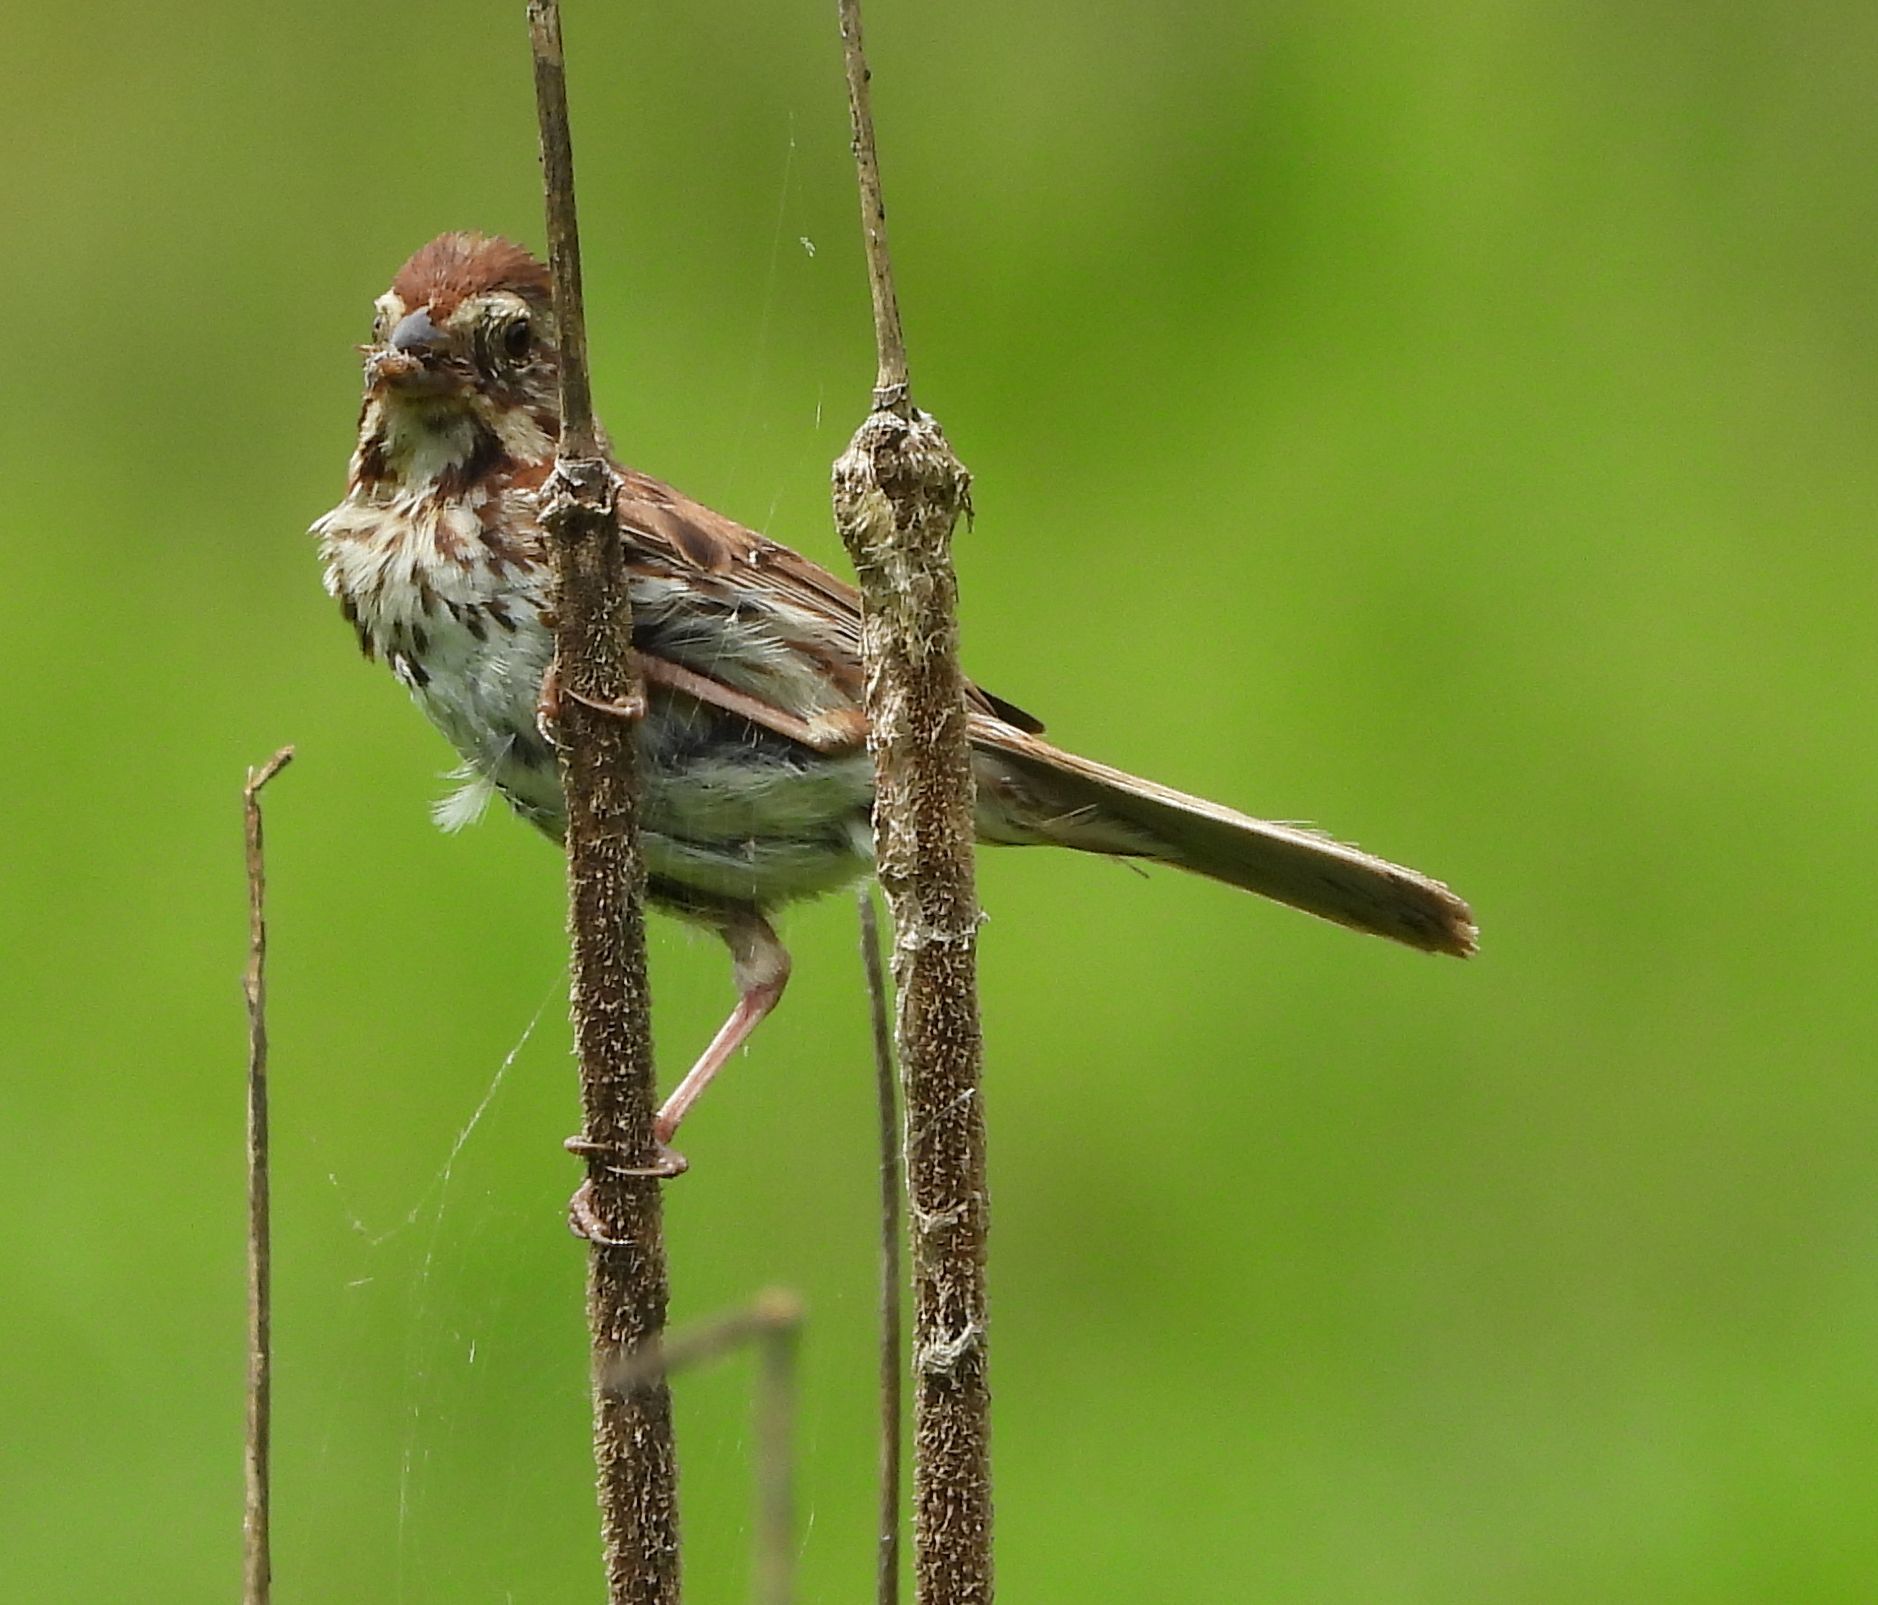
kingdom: Animalia
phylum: Chordata
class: Aves
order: Passeriformes
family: Passerellidae
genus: Melospiza
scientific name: Melospiza melodia
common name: Song sparrow
